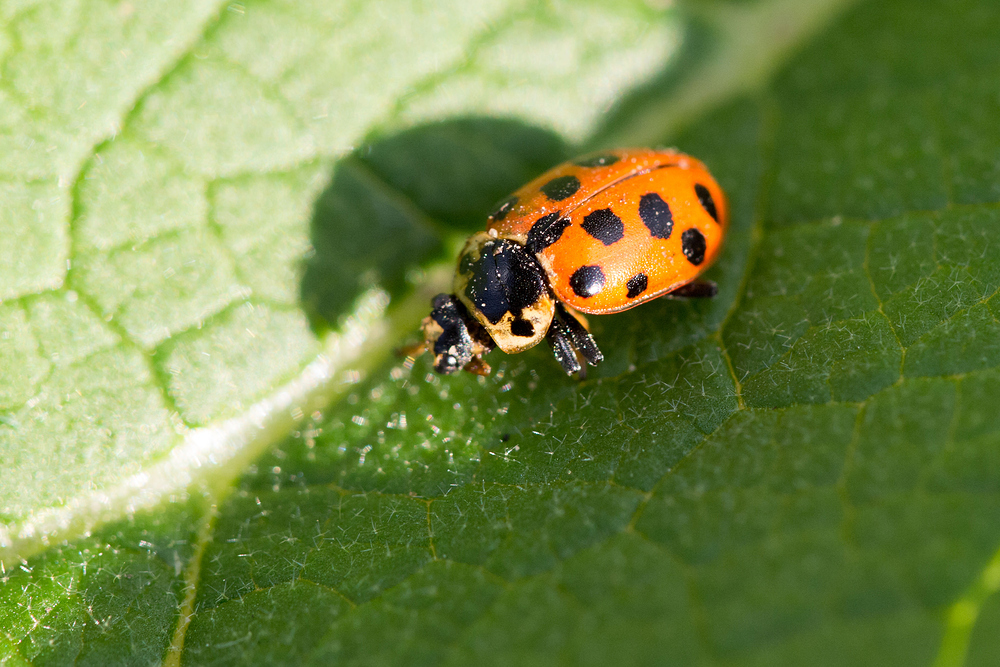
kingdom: Animalia
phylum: Arthropoda
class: Insecta
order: Coleoptera
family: Coccinellidae
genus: Hippodamia
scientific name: Hippodamia tredecimpunctata
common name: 13-spot ladybird
